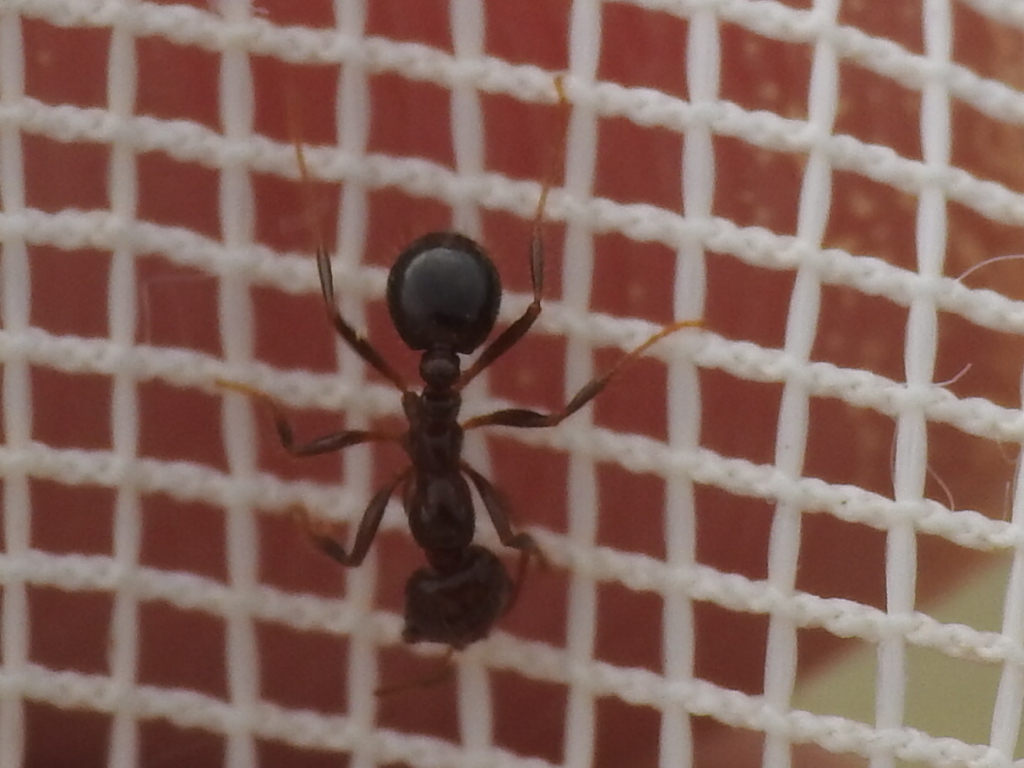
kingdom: Animalia
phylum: Arthropoda
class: Insecta
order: Hymenoptera
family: Formicidae
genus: Solenopsis
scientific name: Solenopsis invicta
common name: Red imported fire ant
